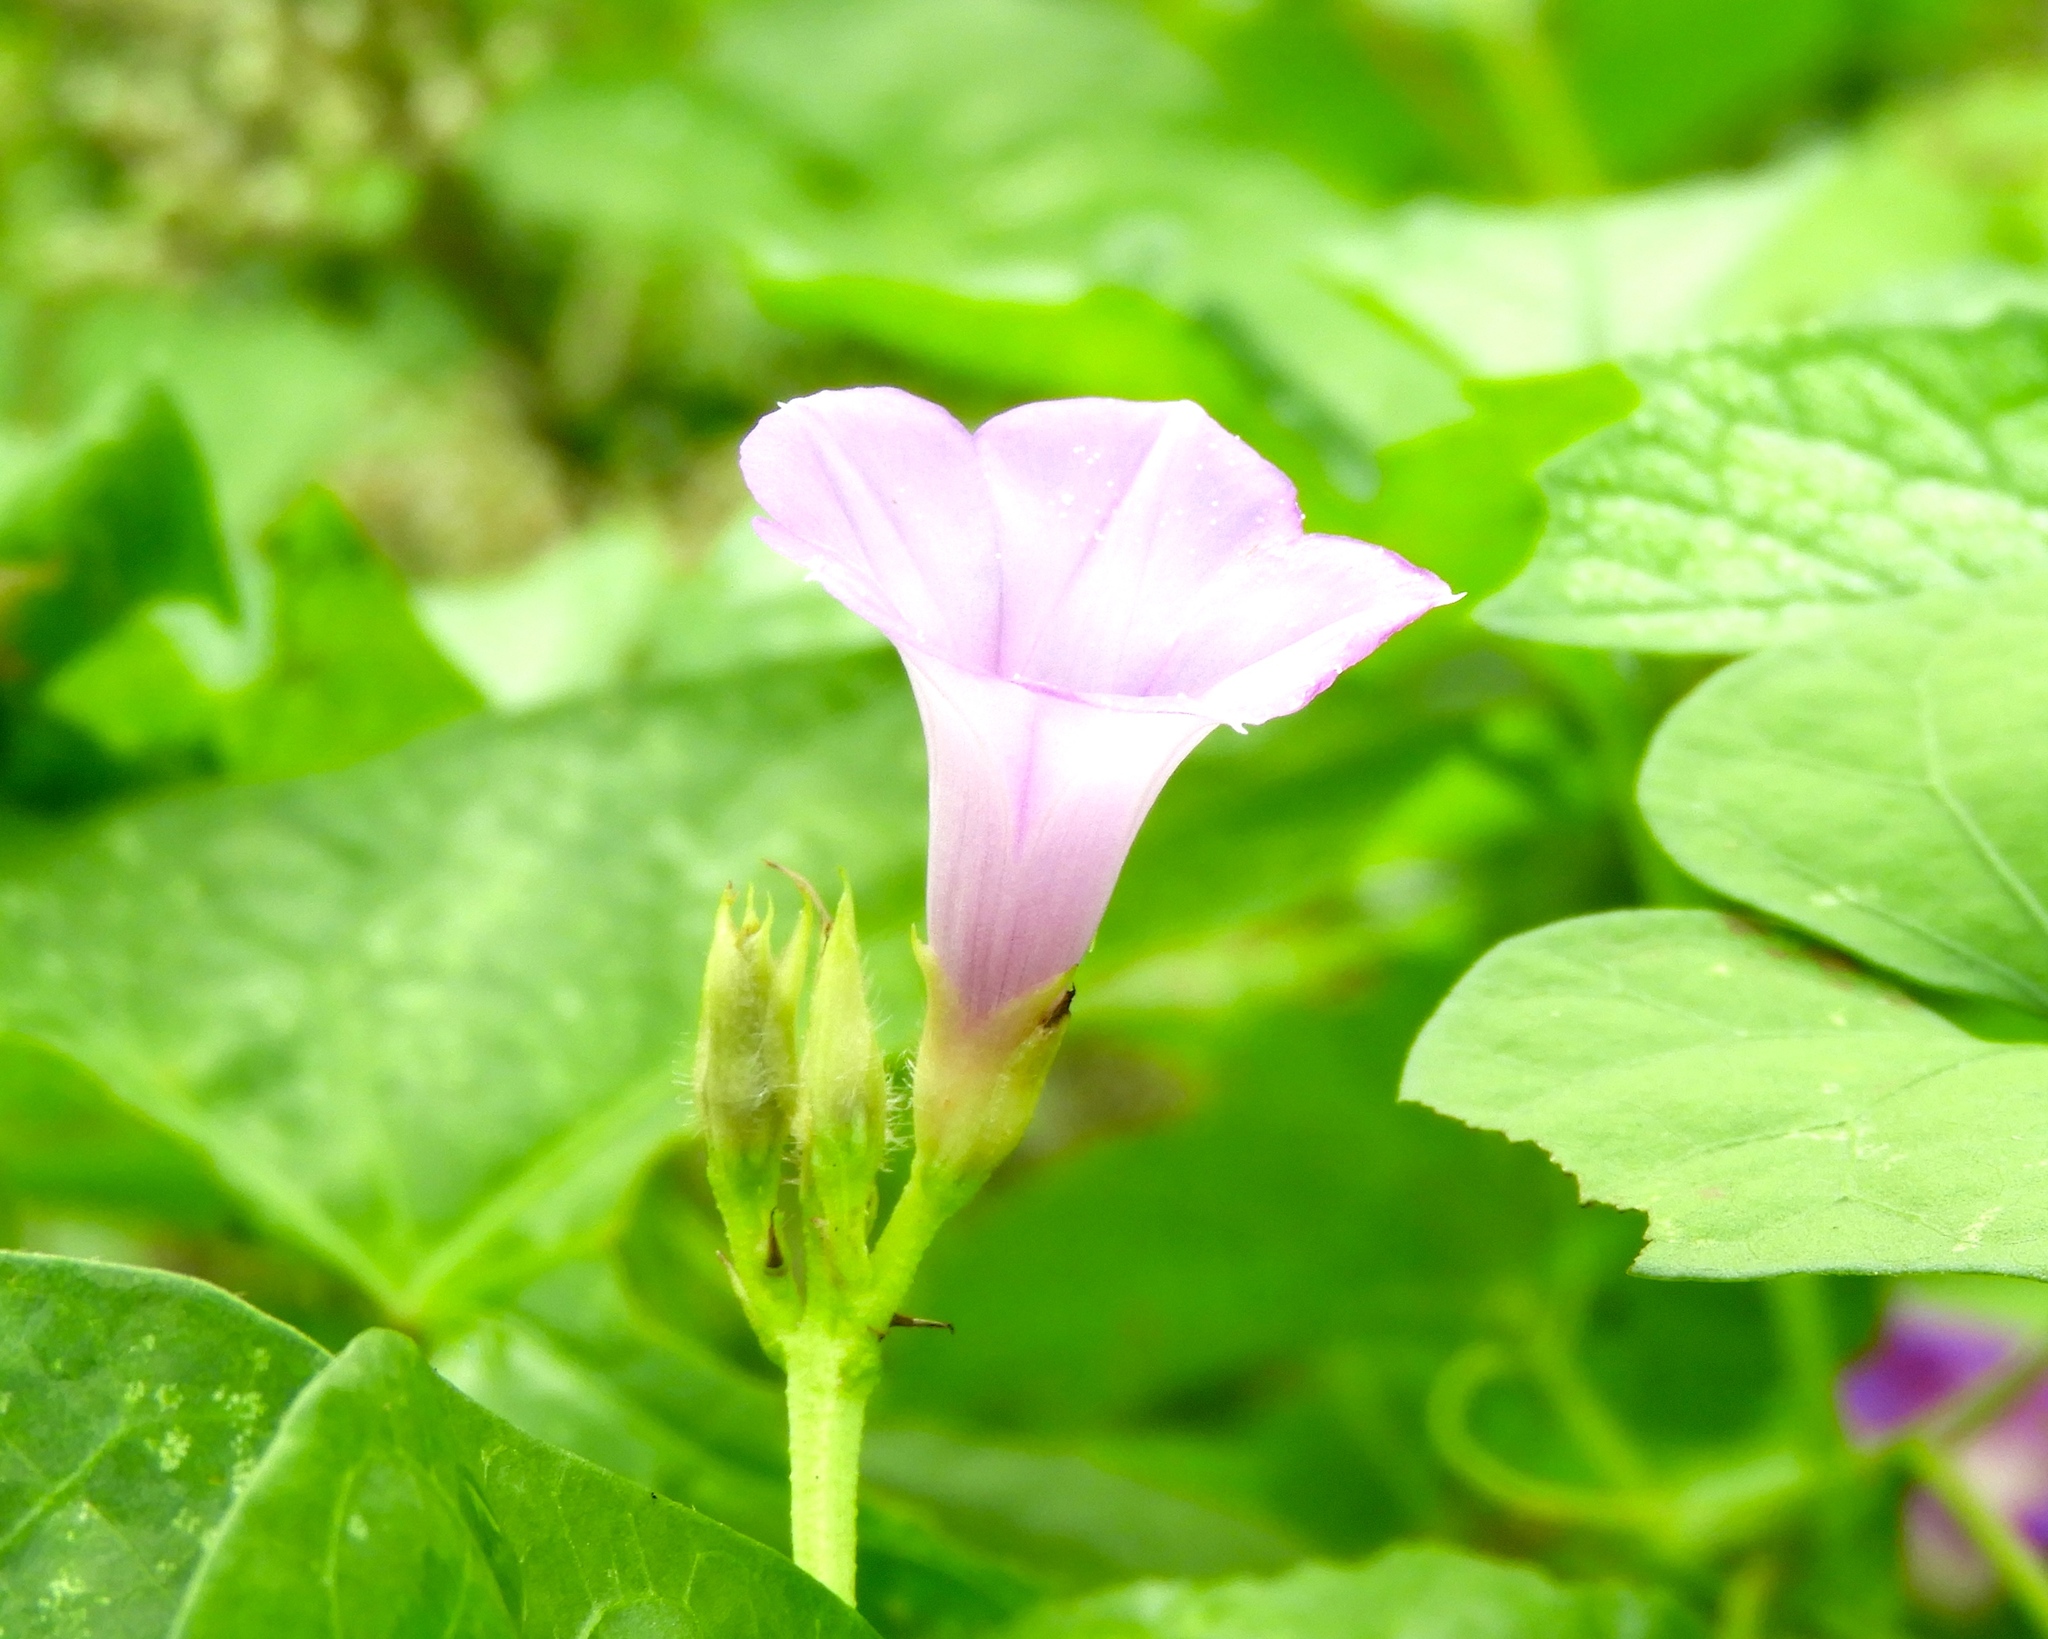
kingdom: Plantae
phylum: Tracheophyta
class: Magnoliopsida
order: Solanales
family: Convolvulaceae
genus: Ipomoea
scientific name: Ipomoea triloba
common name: Little-bell
